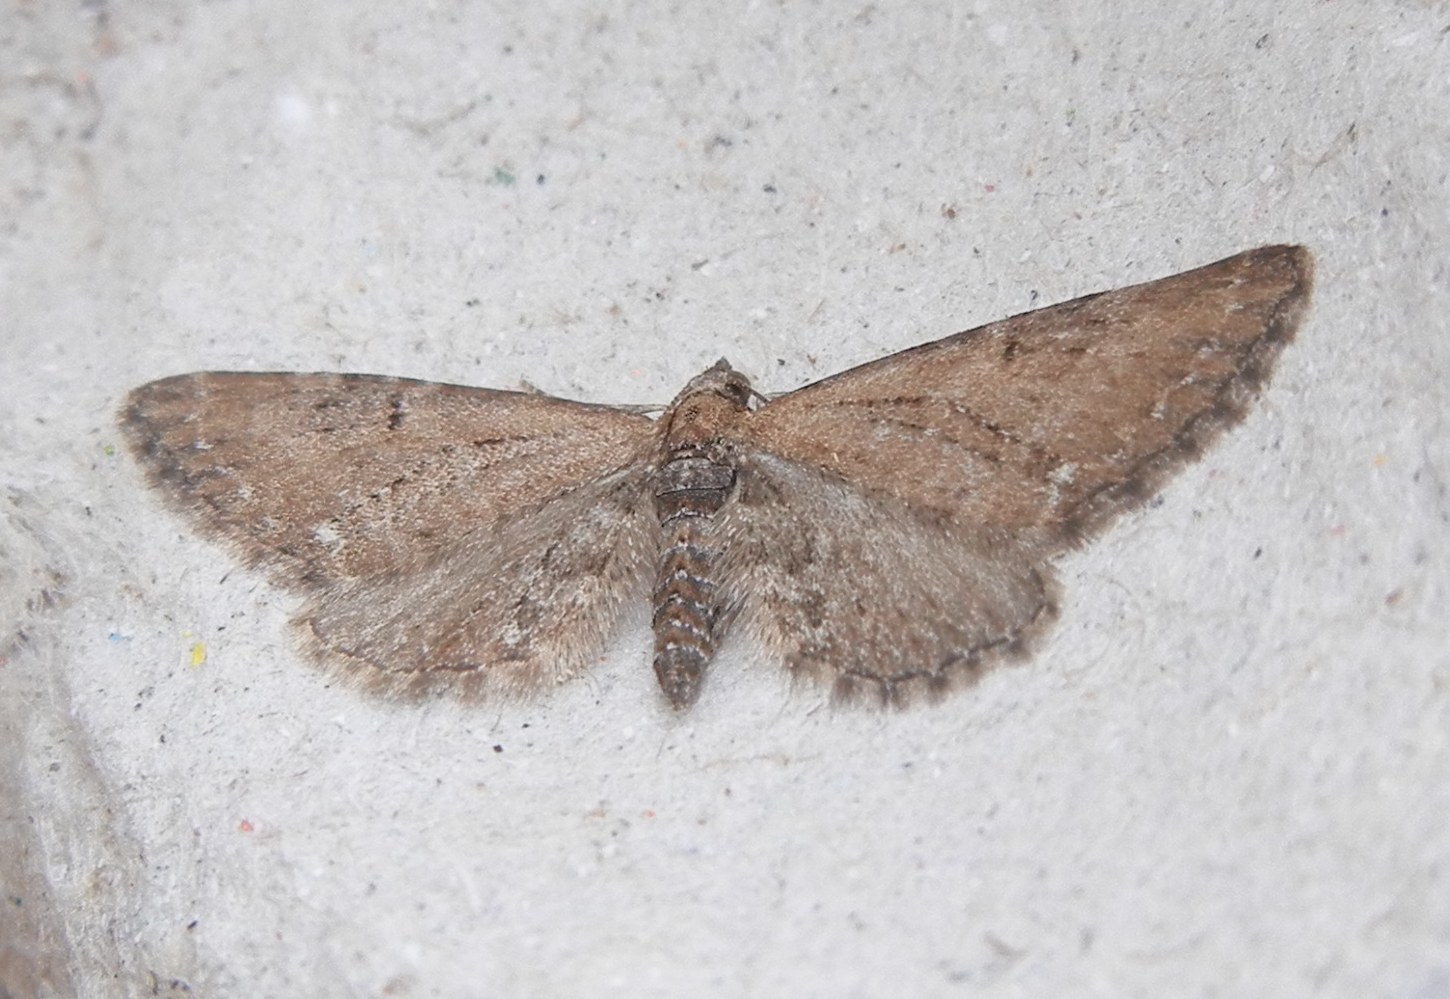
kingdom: Animalia
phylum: Arthropoda
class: Insecta
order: Lepidoptera
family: Geometridae
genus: Eupithecia
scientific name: Eupithecia vulgata
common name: Common pug
